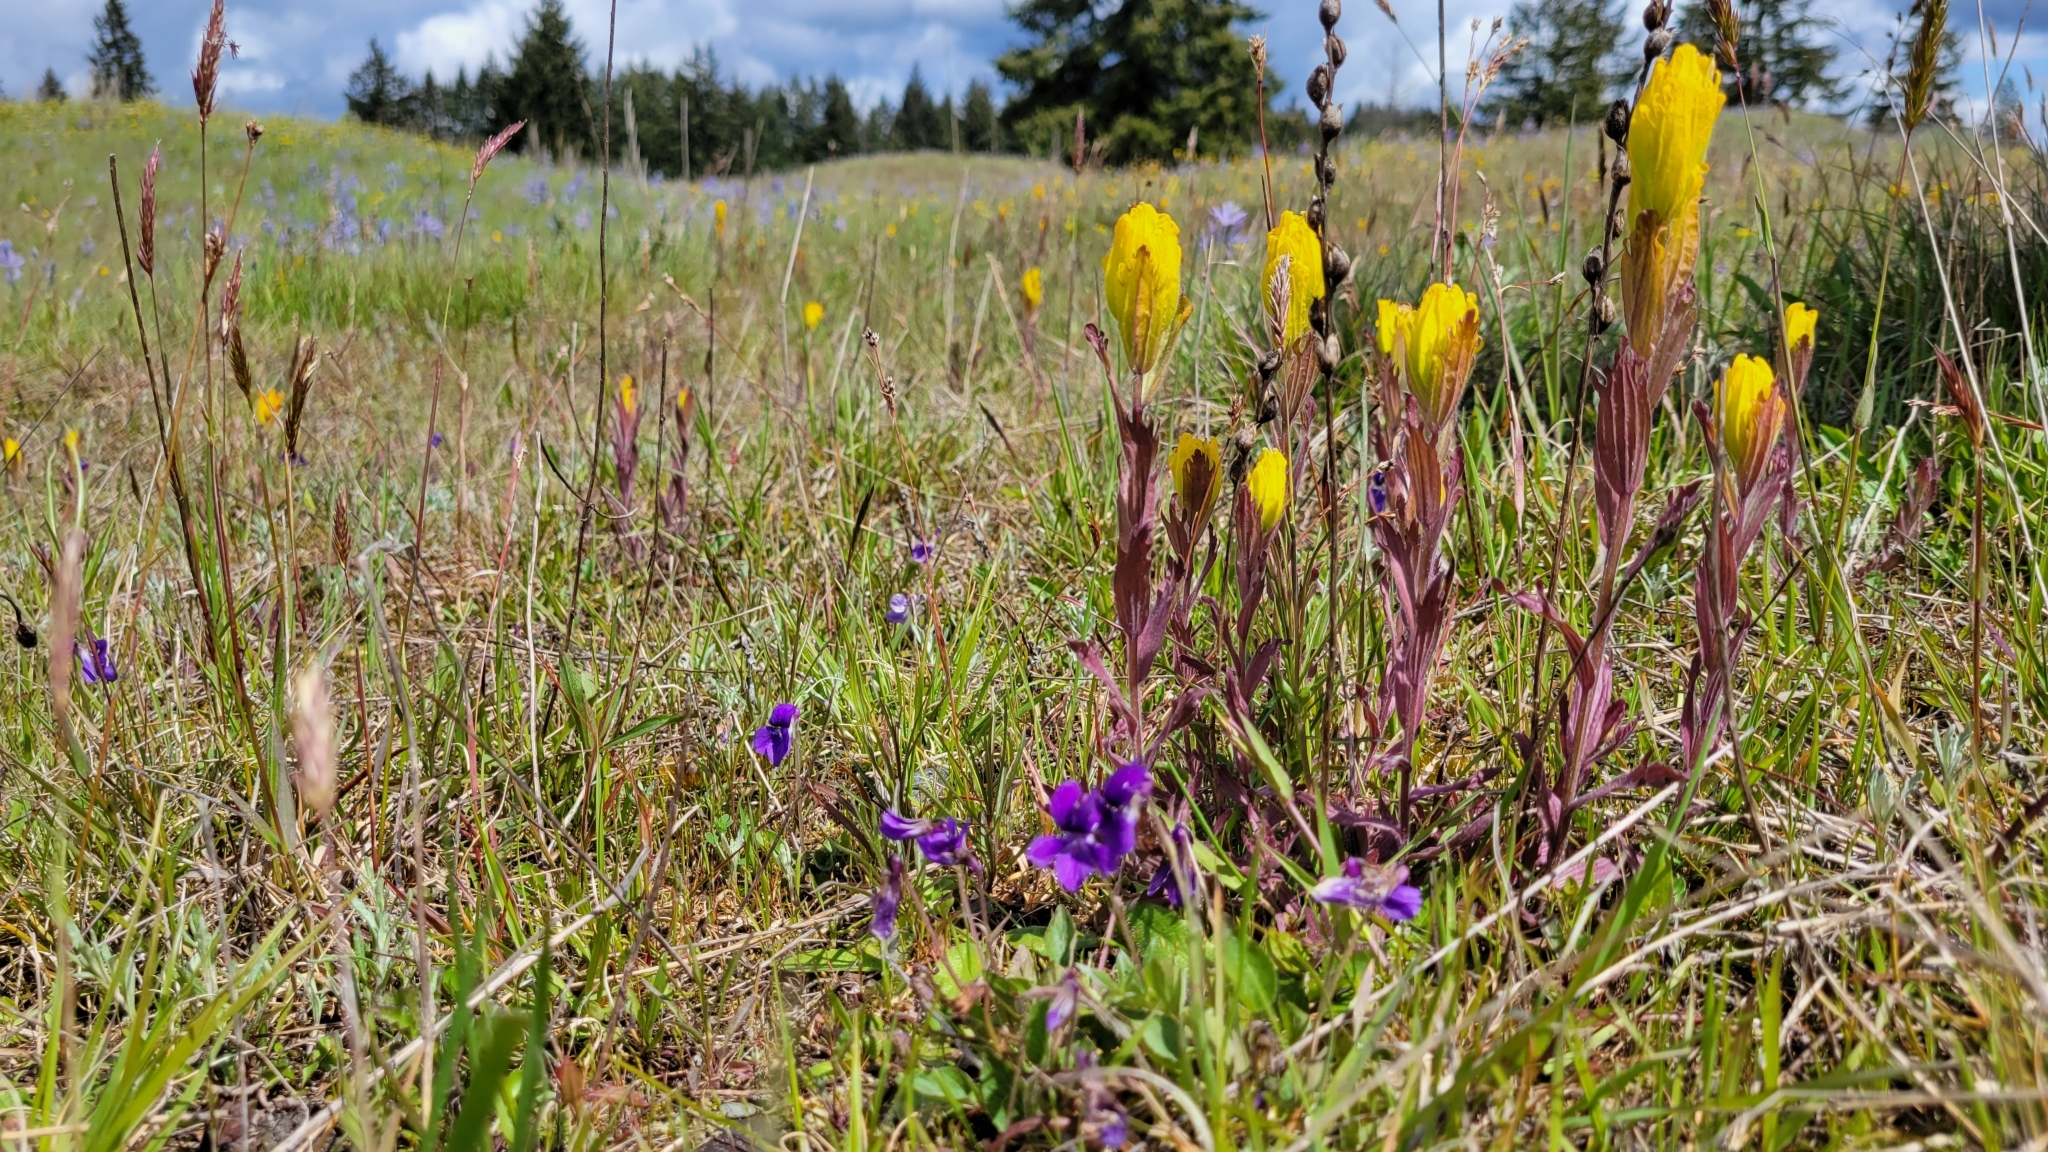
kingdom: Plantae
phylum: Tracheophyta
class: Magnoliopsida
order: Lamiales
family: Orobanchaceae
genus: Castilleja
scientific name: Castilleja levisecta
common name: Golden paintbrush
